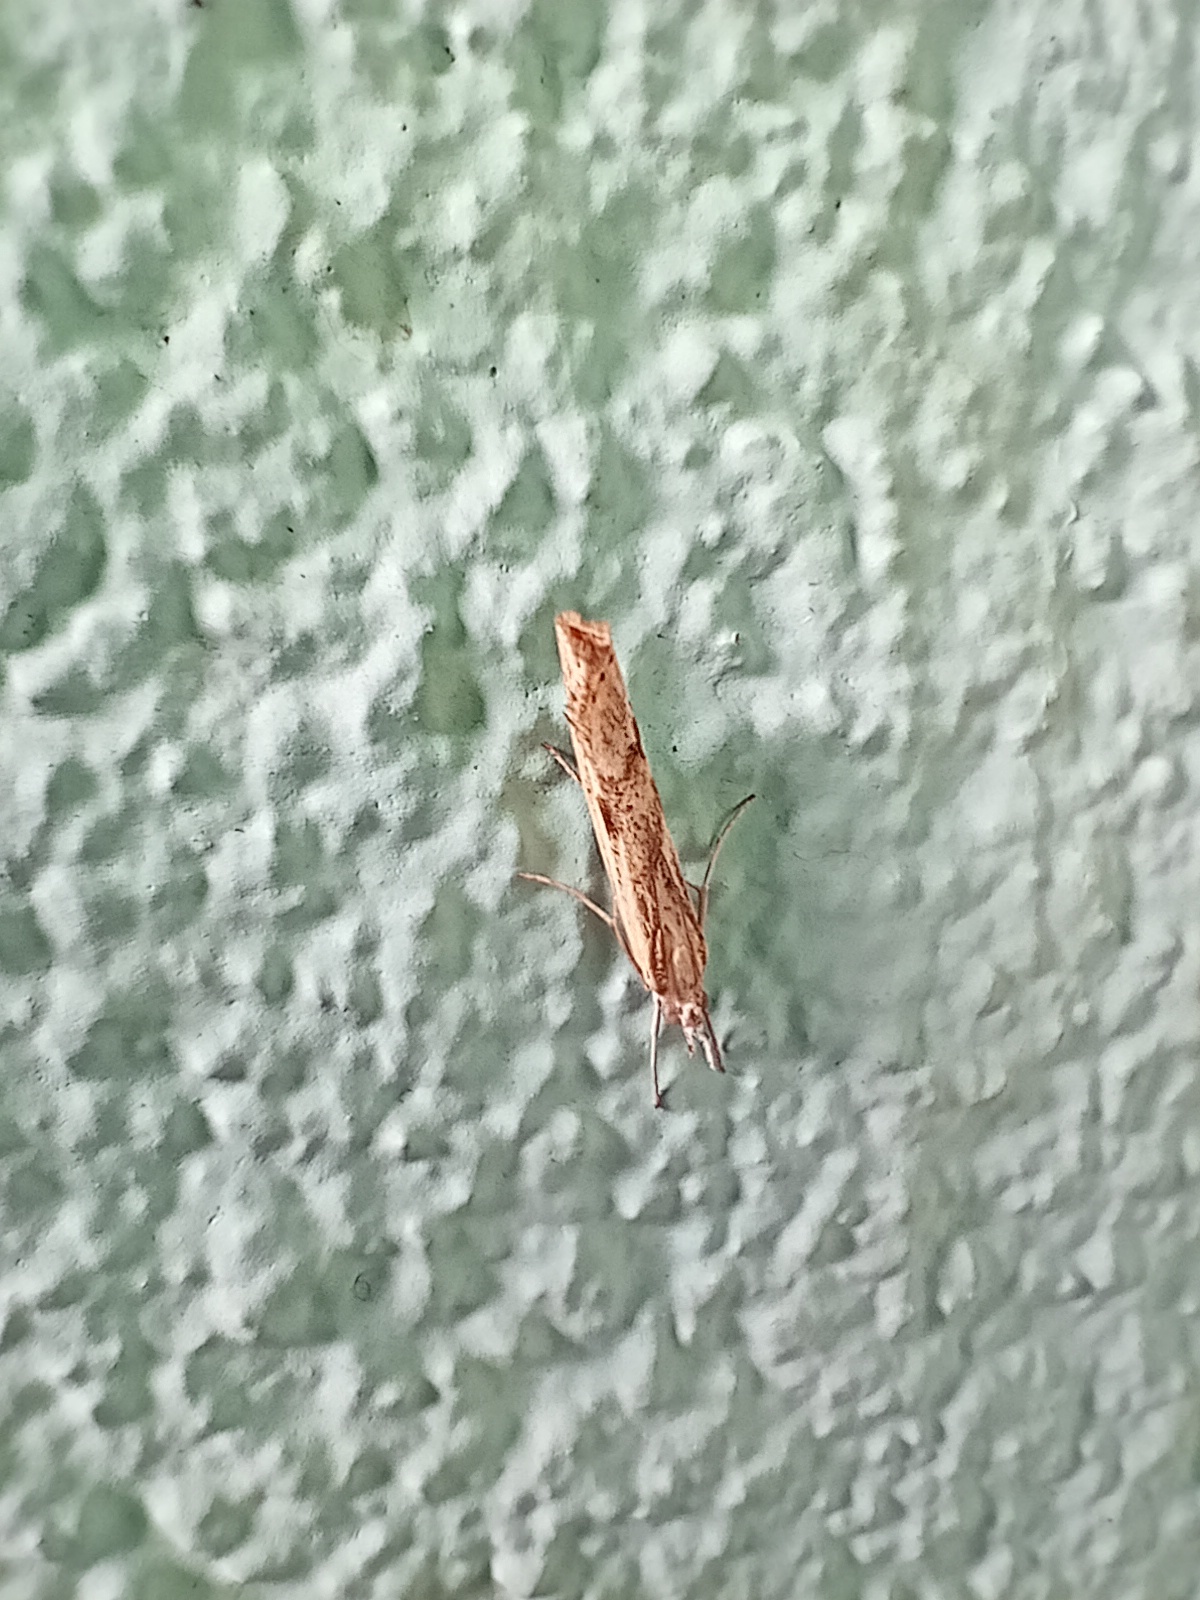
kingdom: Animalia
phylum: Arthropoda
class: Insecta
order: Lepidoptera
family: Crambidae
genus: Agriphila
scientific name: Agriphila inquinatella
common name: Barred grass-veneer
